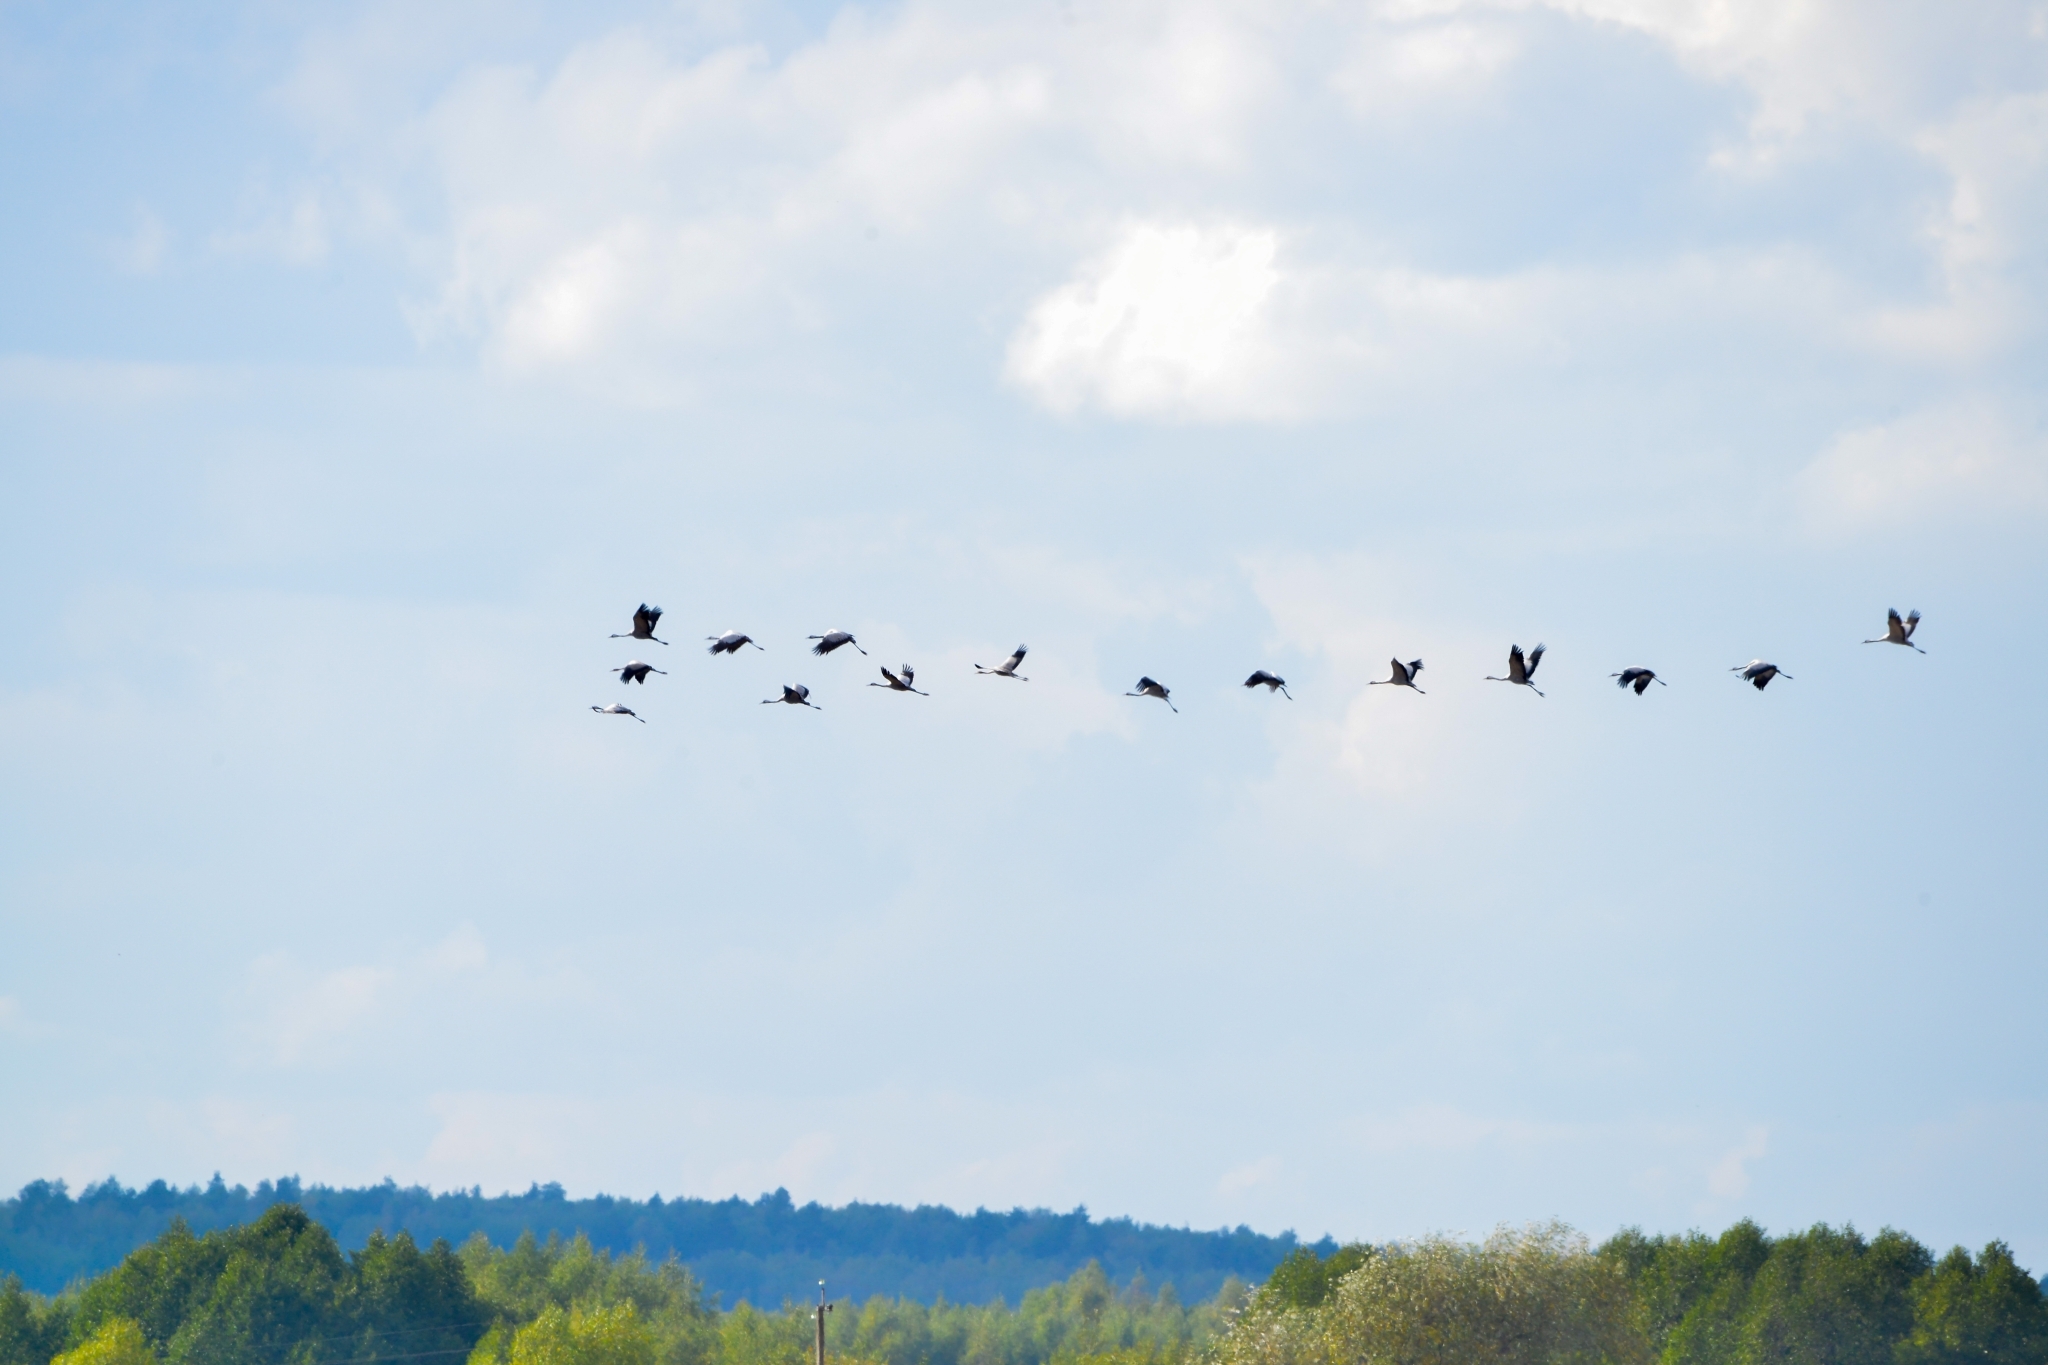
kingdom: Animalia
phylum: Chordata
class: Aves
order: Gruiformes
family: Gruidae
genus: Grus
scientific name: Grus grus
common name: Common crane
